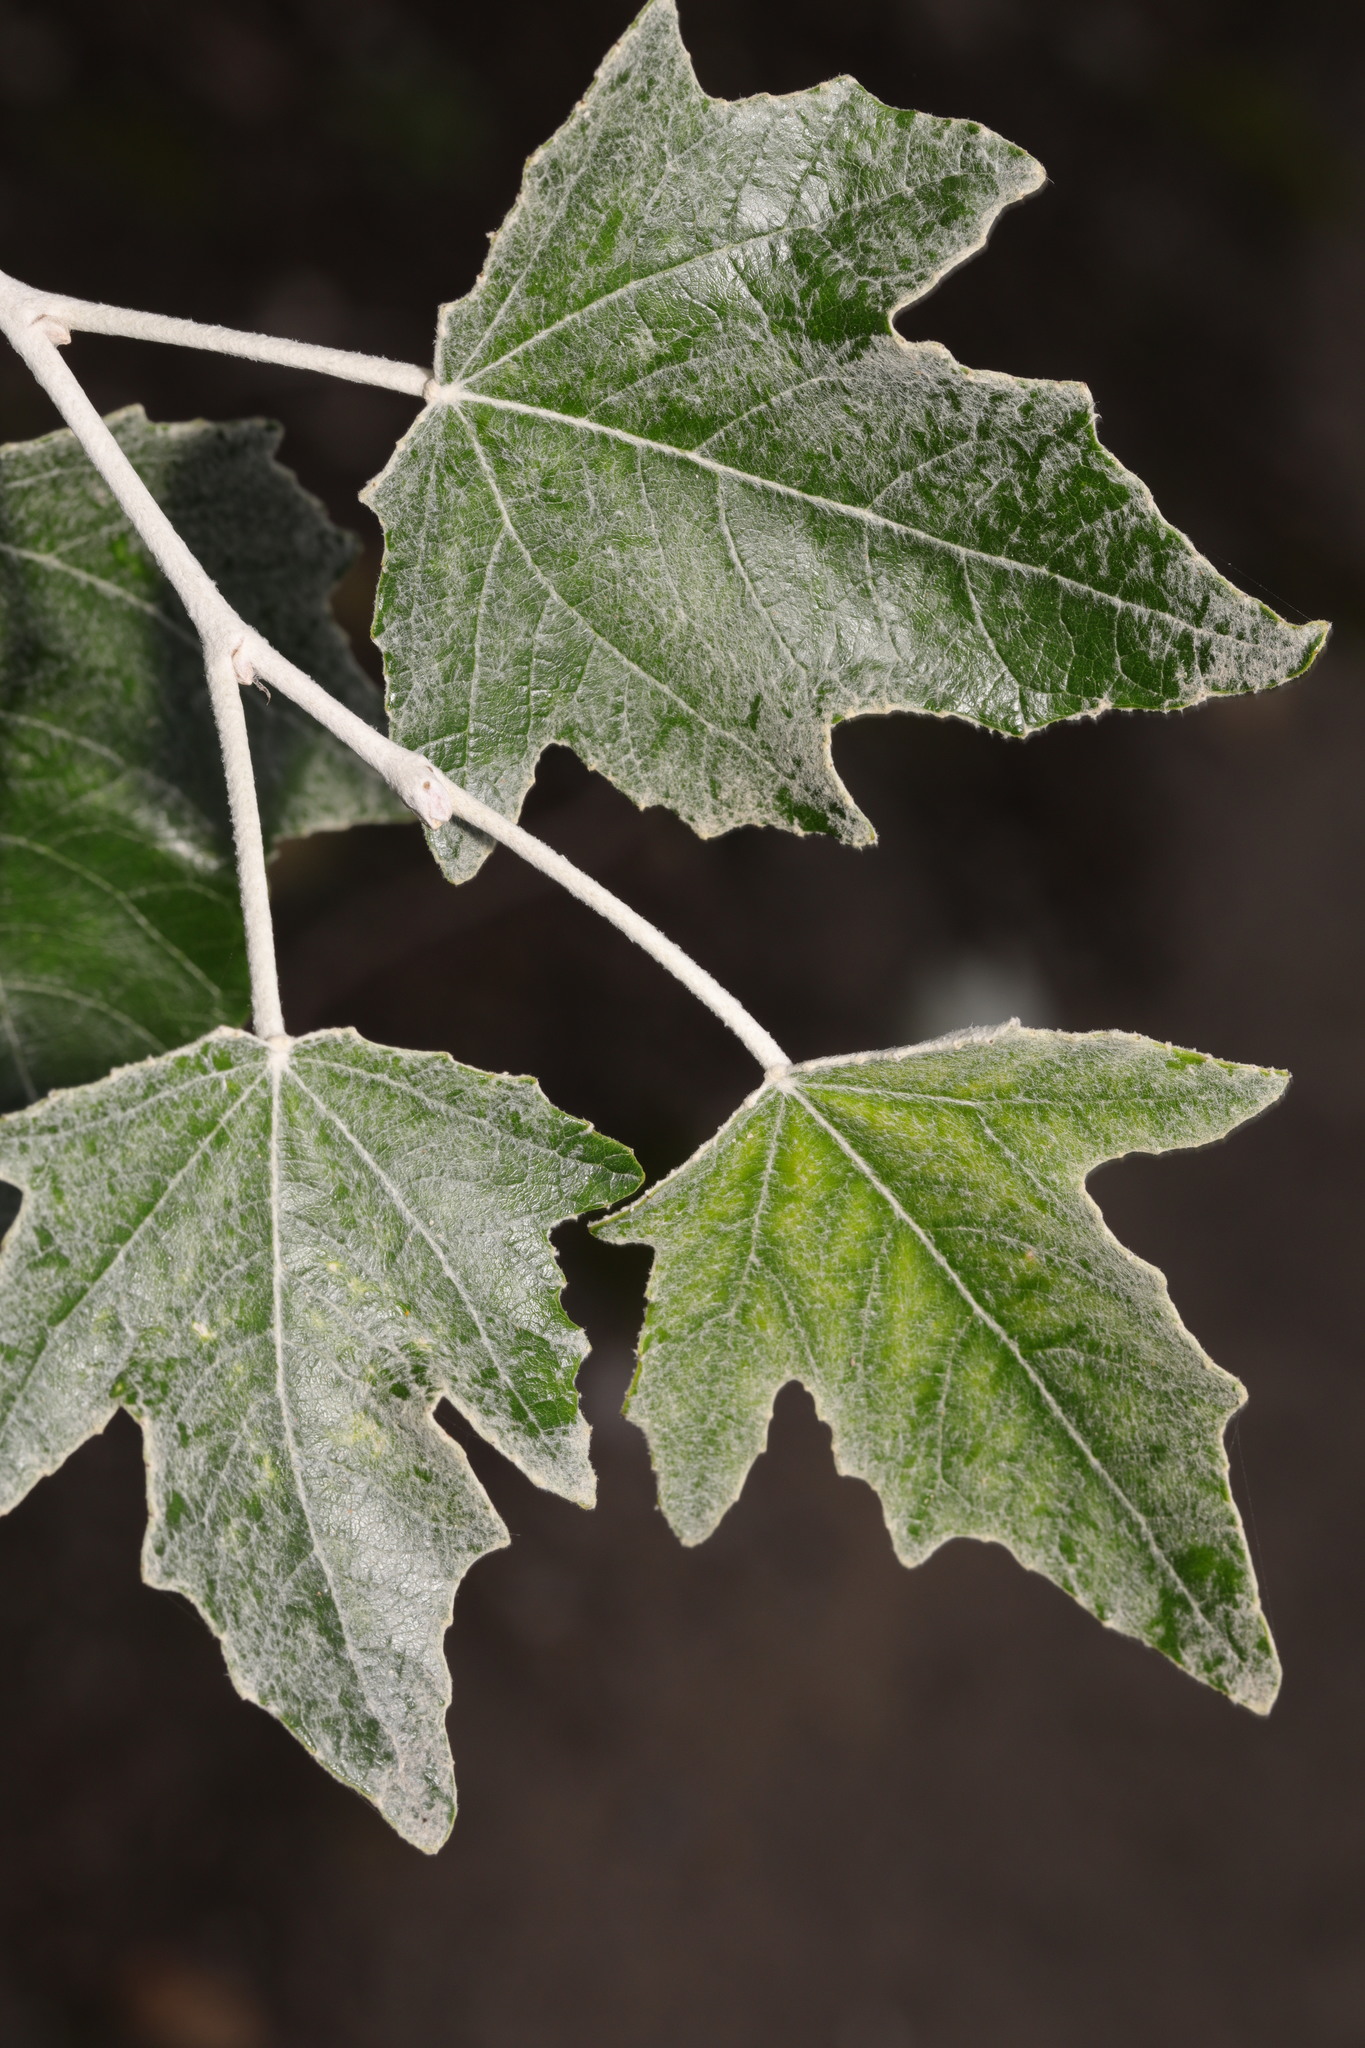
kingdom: Plantae
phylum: Tracheophyta
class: Magnoliopsida
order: Malpighiales
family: Salicaceae
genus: Populus
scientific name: Populus alba
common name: White poplar
